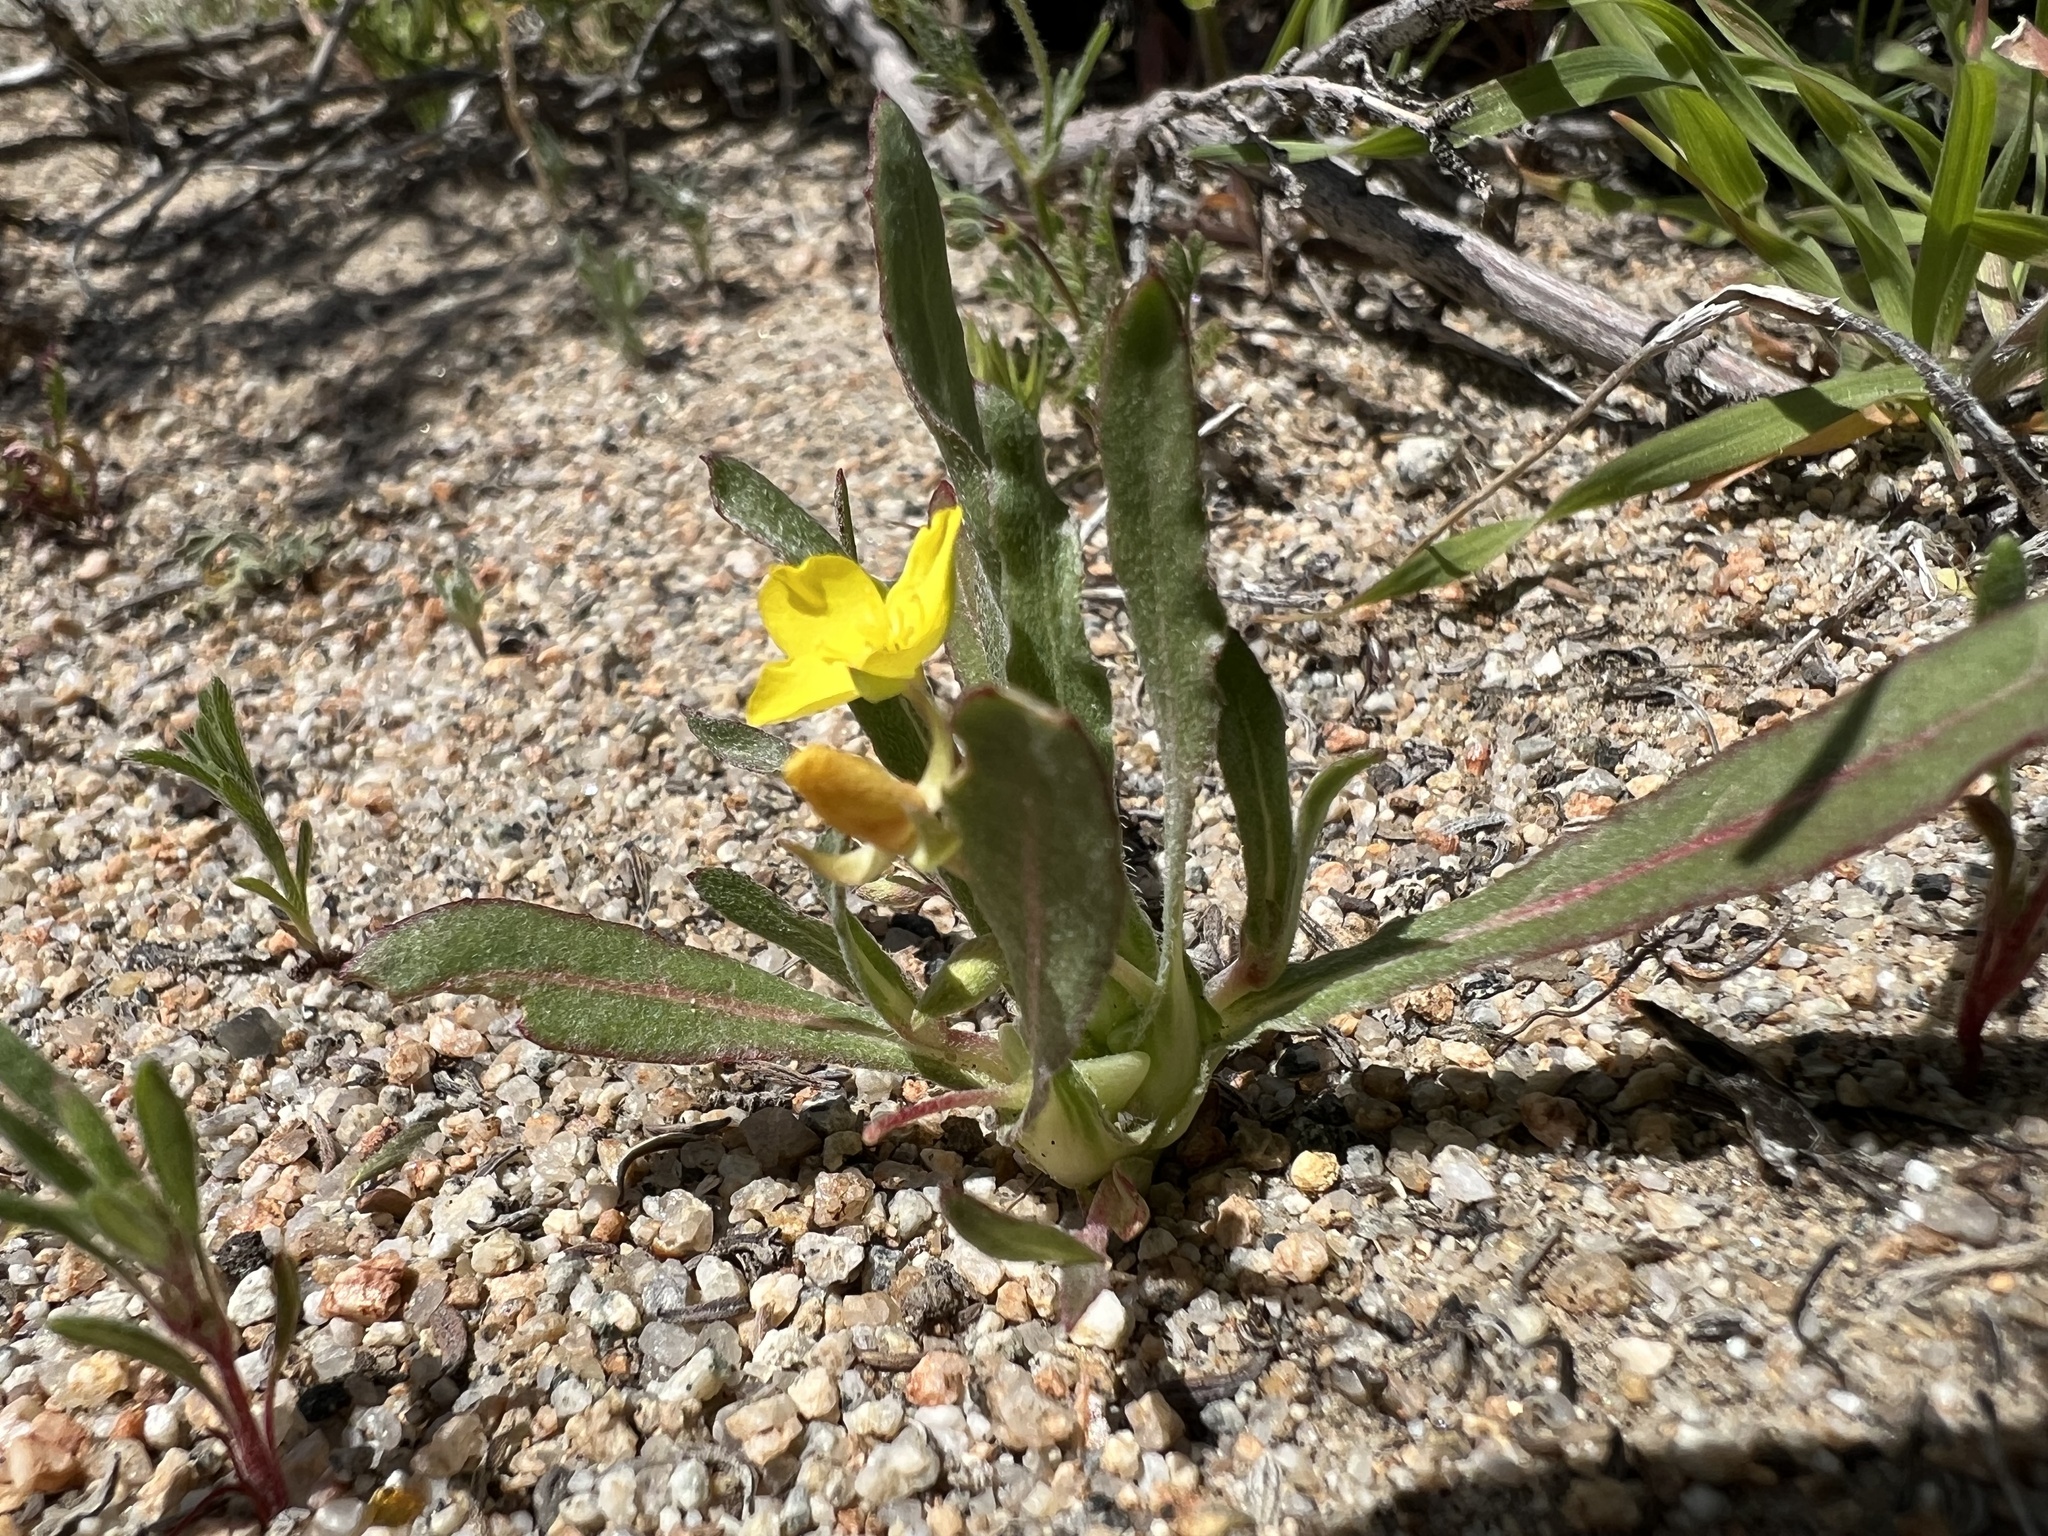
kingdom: Plantae
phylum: Tracheophyta
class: Magnoliopsida
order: Myrtales
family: Onagraceae
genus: Tetrapteron
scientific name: Tetrapteron palmeri
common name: Palmer's evening primrose
